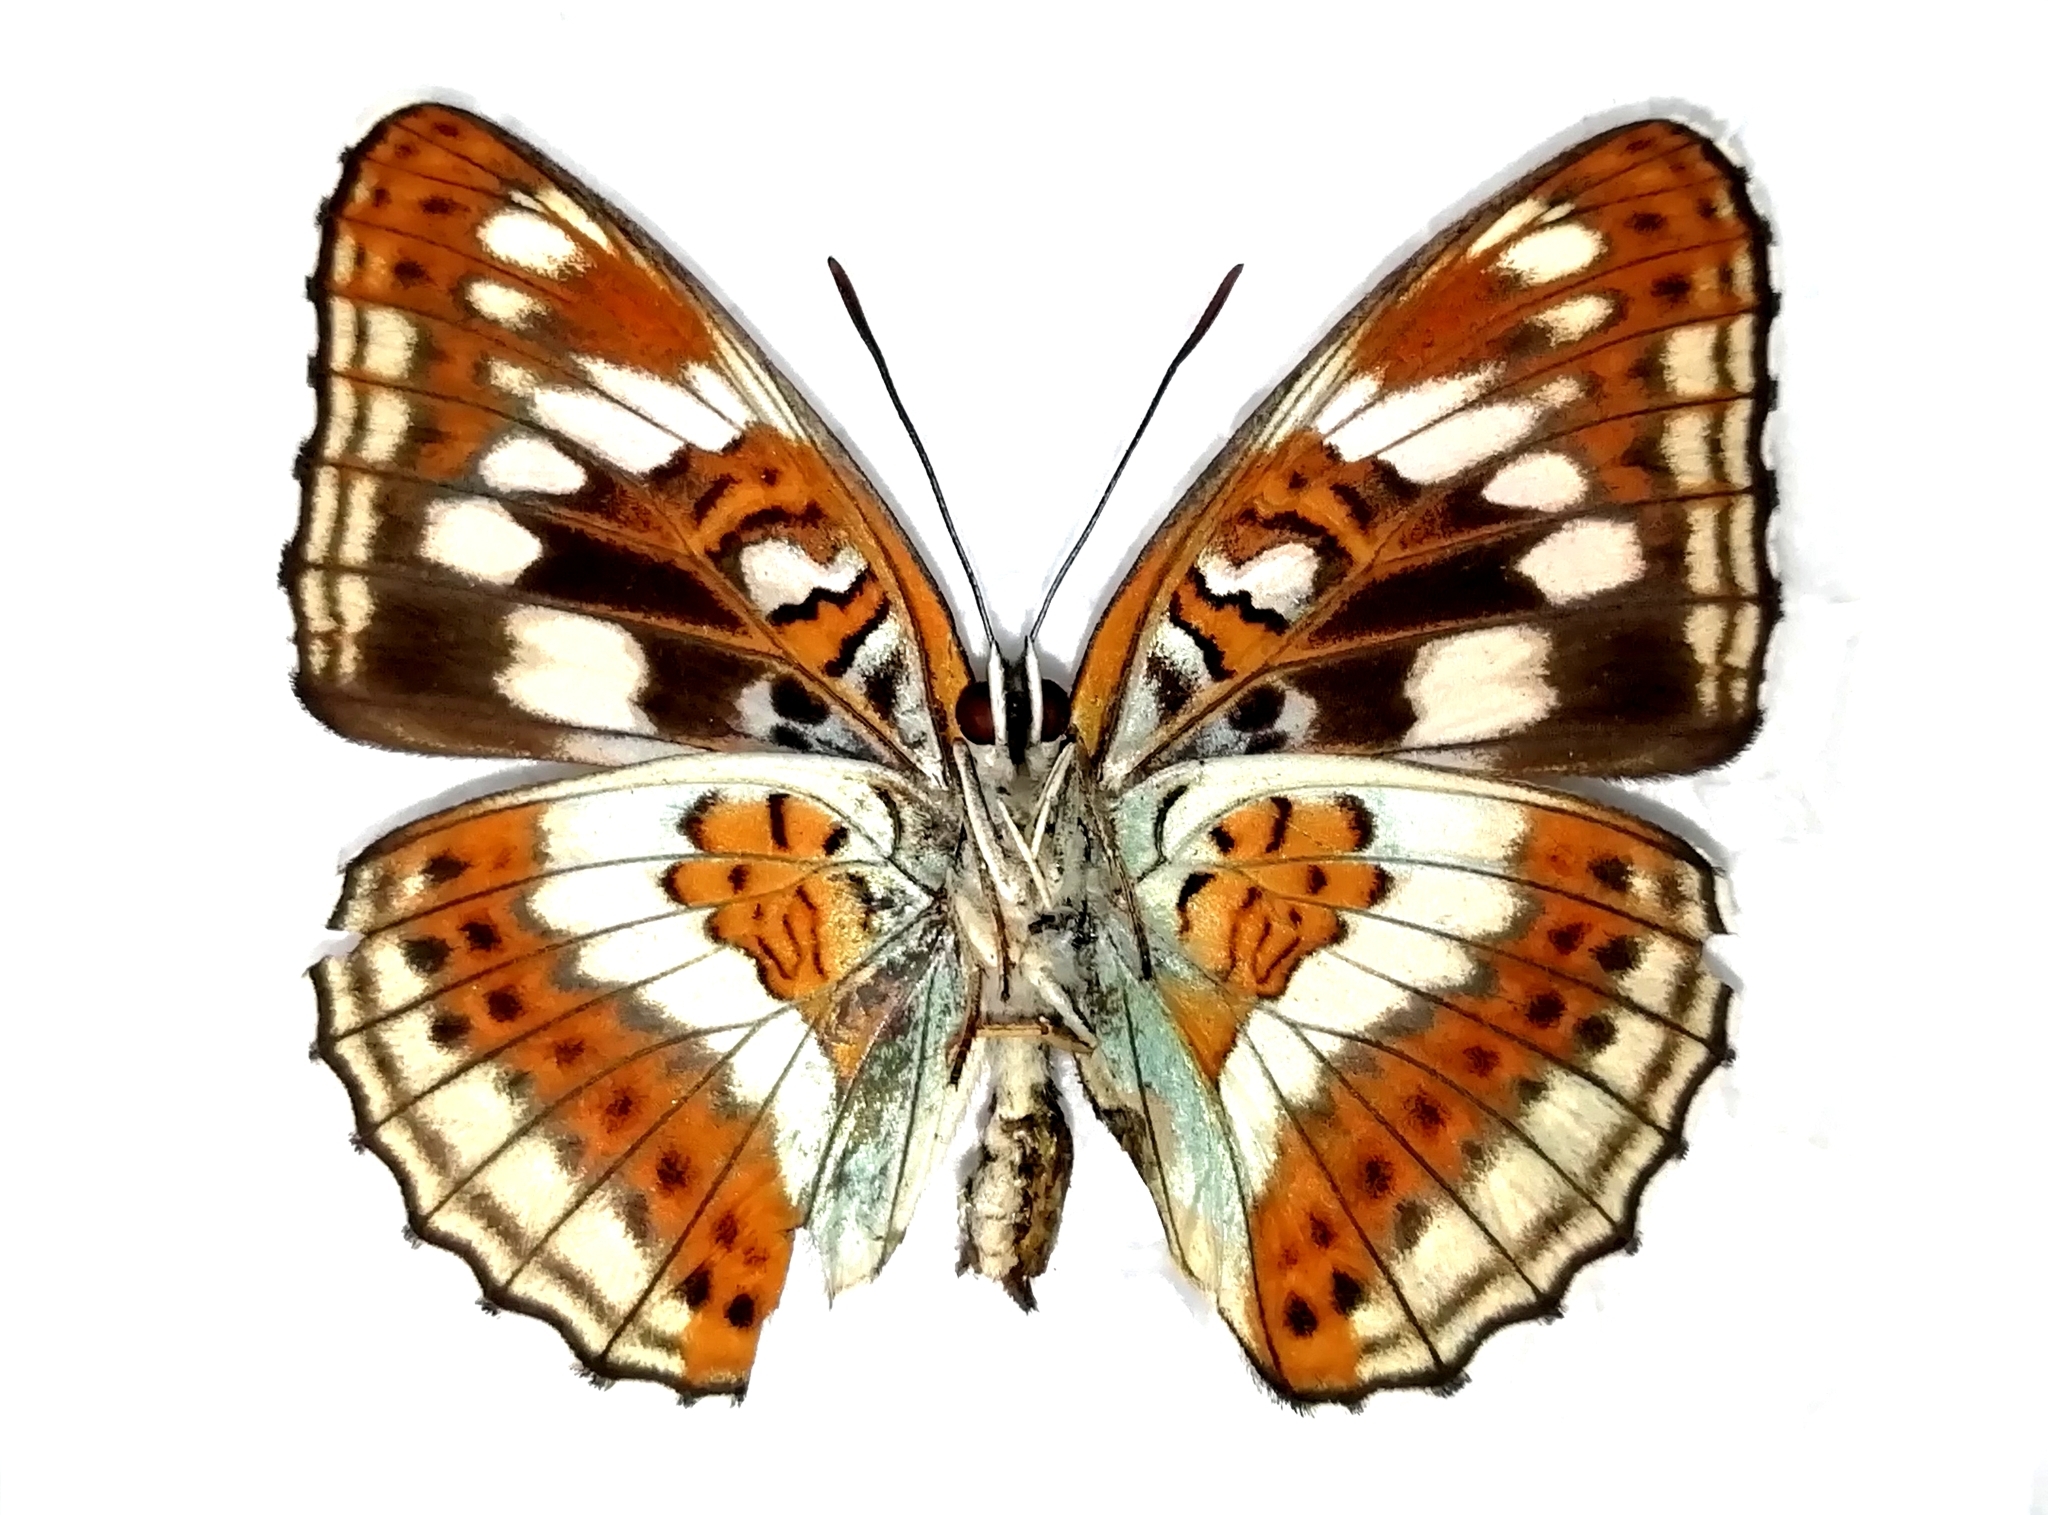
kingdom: Animalia
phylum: Arthropoda
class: Insecta
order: Lepidoptera
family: Nymphalidae
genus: Limenitis
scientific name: Limenitis sydyi
